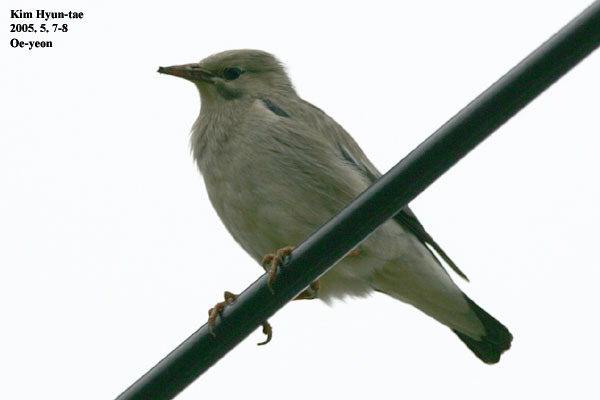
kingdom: Animalia
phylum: Chordata
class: Aves
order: Passeriformes
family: Sturnidae
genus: Spodiopsar
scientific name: Spodiopsar sericeus
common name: Red-billed starling
